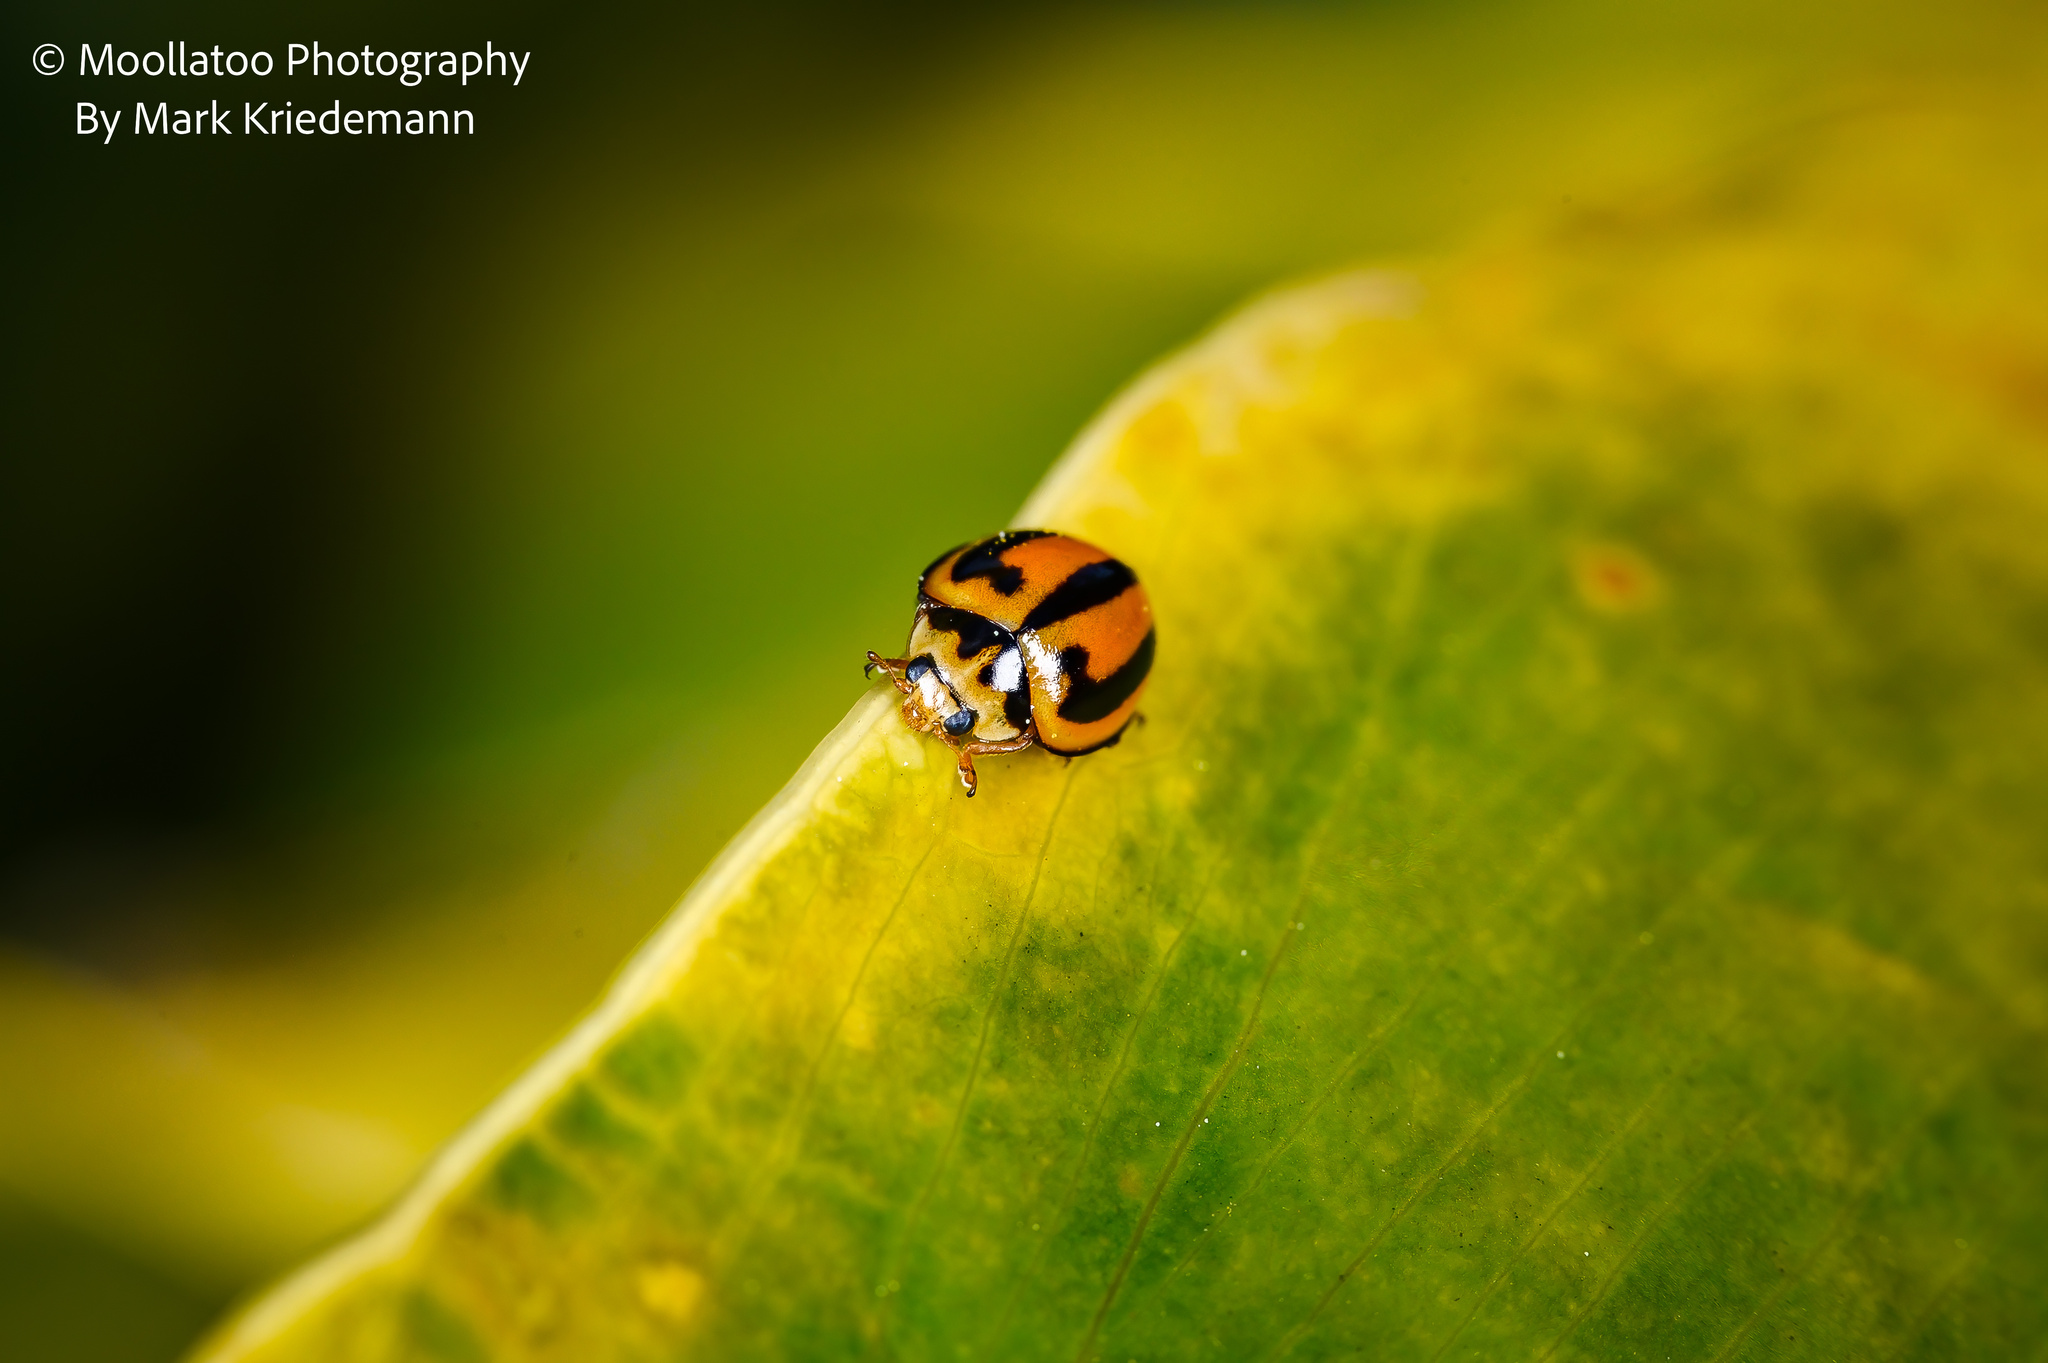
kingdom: Animalia
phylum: Arthropoda
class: Insecta
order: Coleoptera
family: Coccinellidae
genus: Micraspis
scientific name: Micraspis frenata
